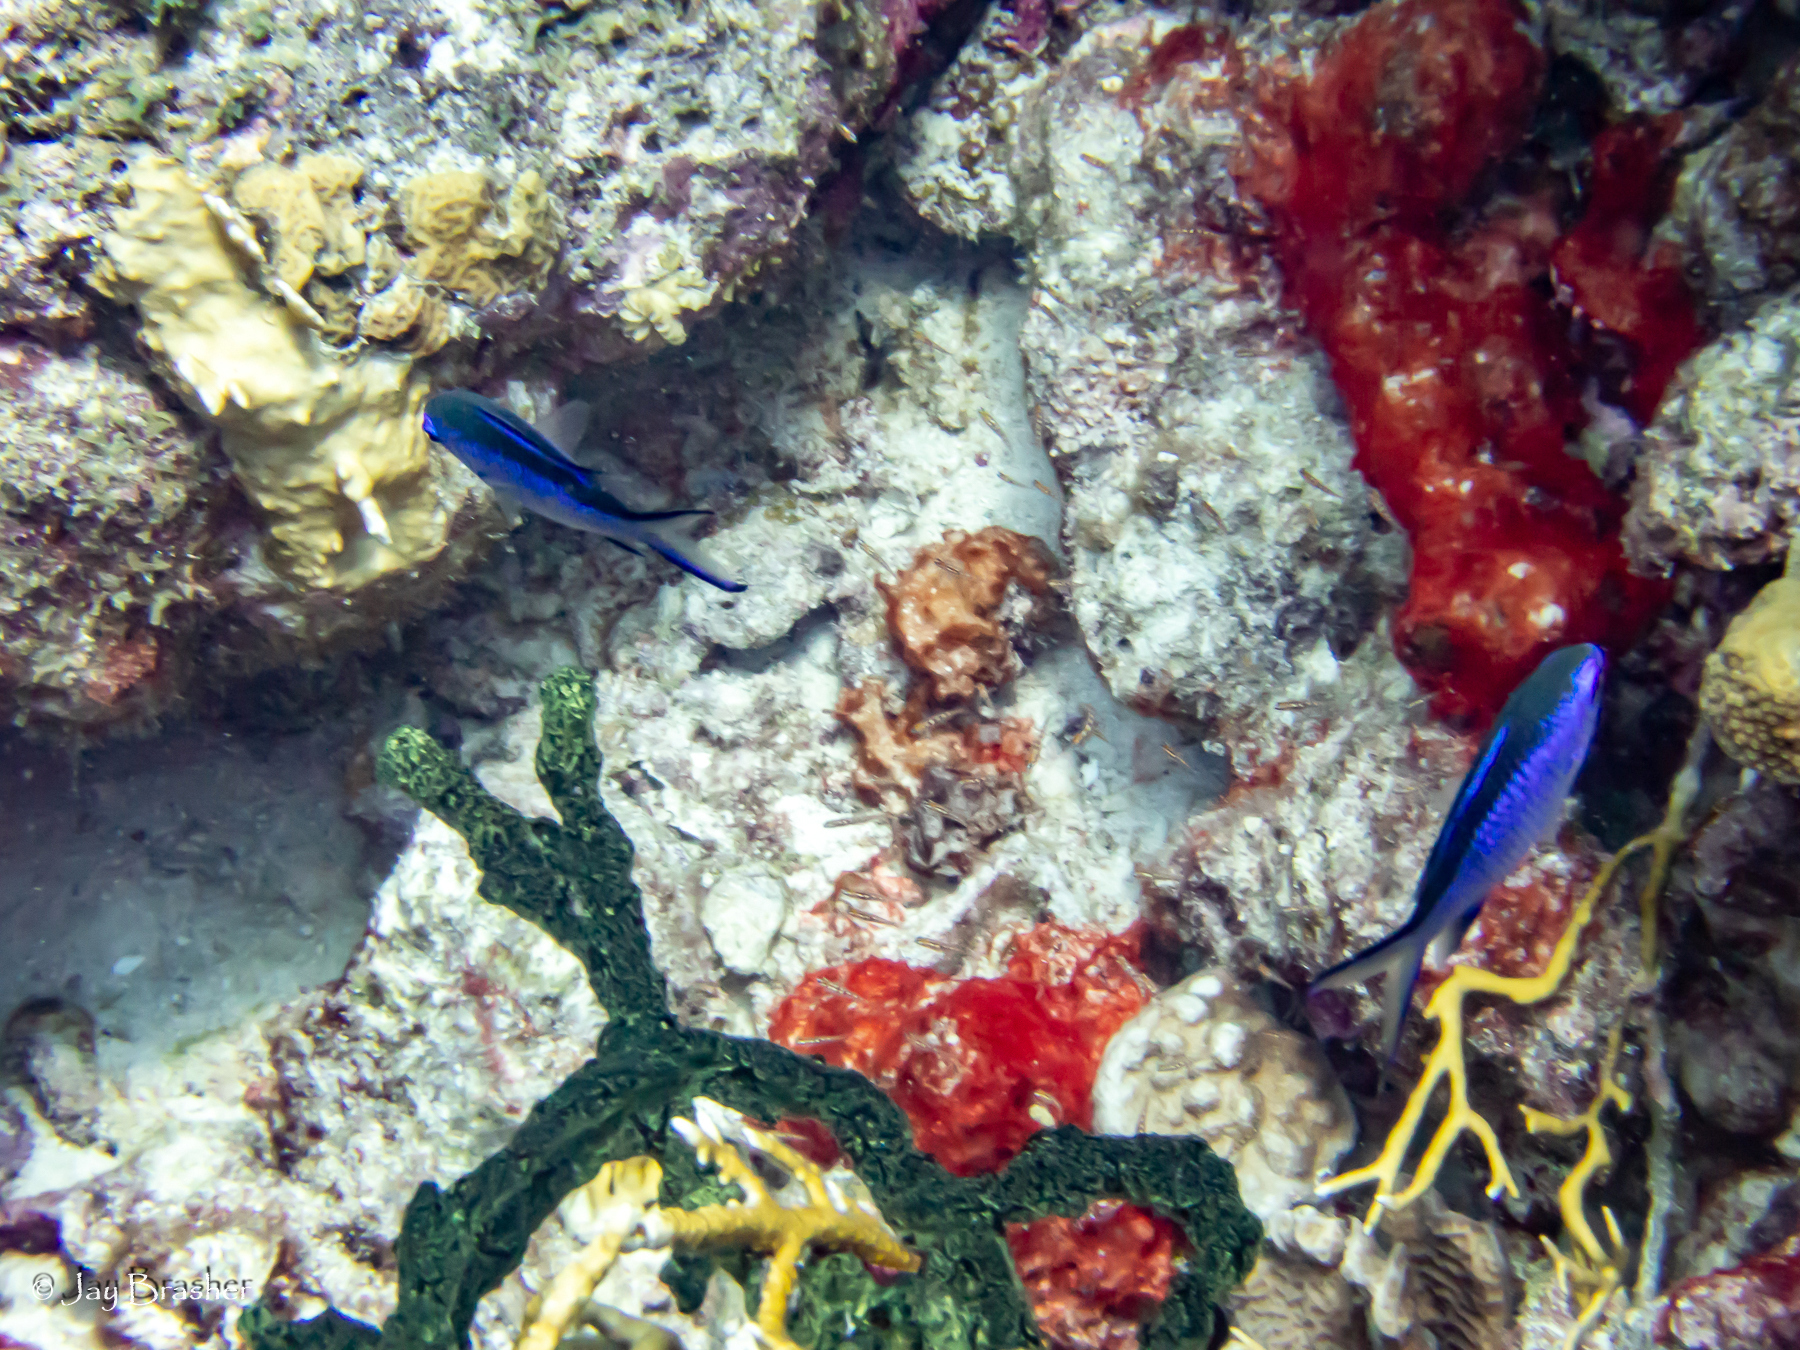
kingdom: Animalia
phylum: Porifera
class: Demospongiae
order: Poecilosclerida
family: Iotrochotidae
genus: Iotrochota
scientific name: Iotrochota birotulata
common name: Purple bleeding sponge
